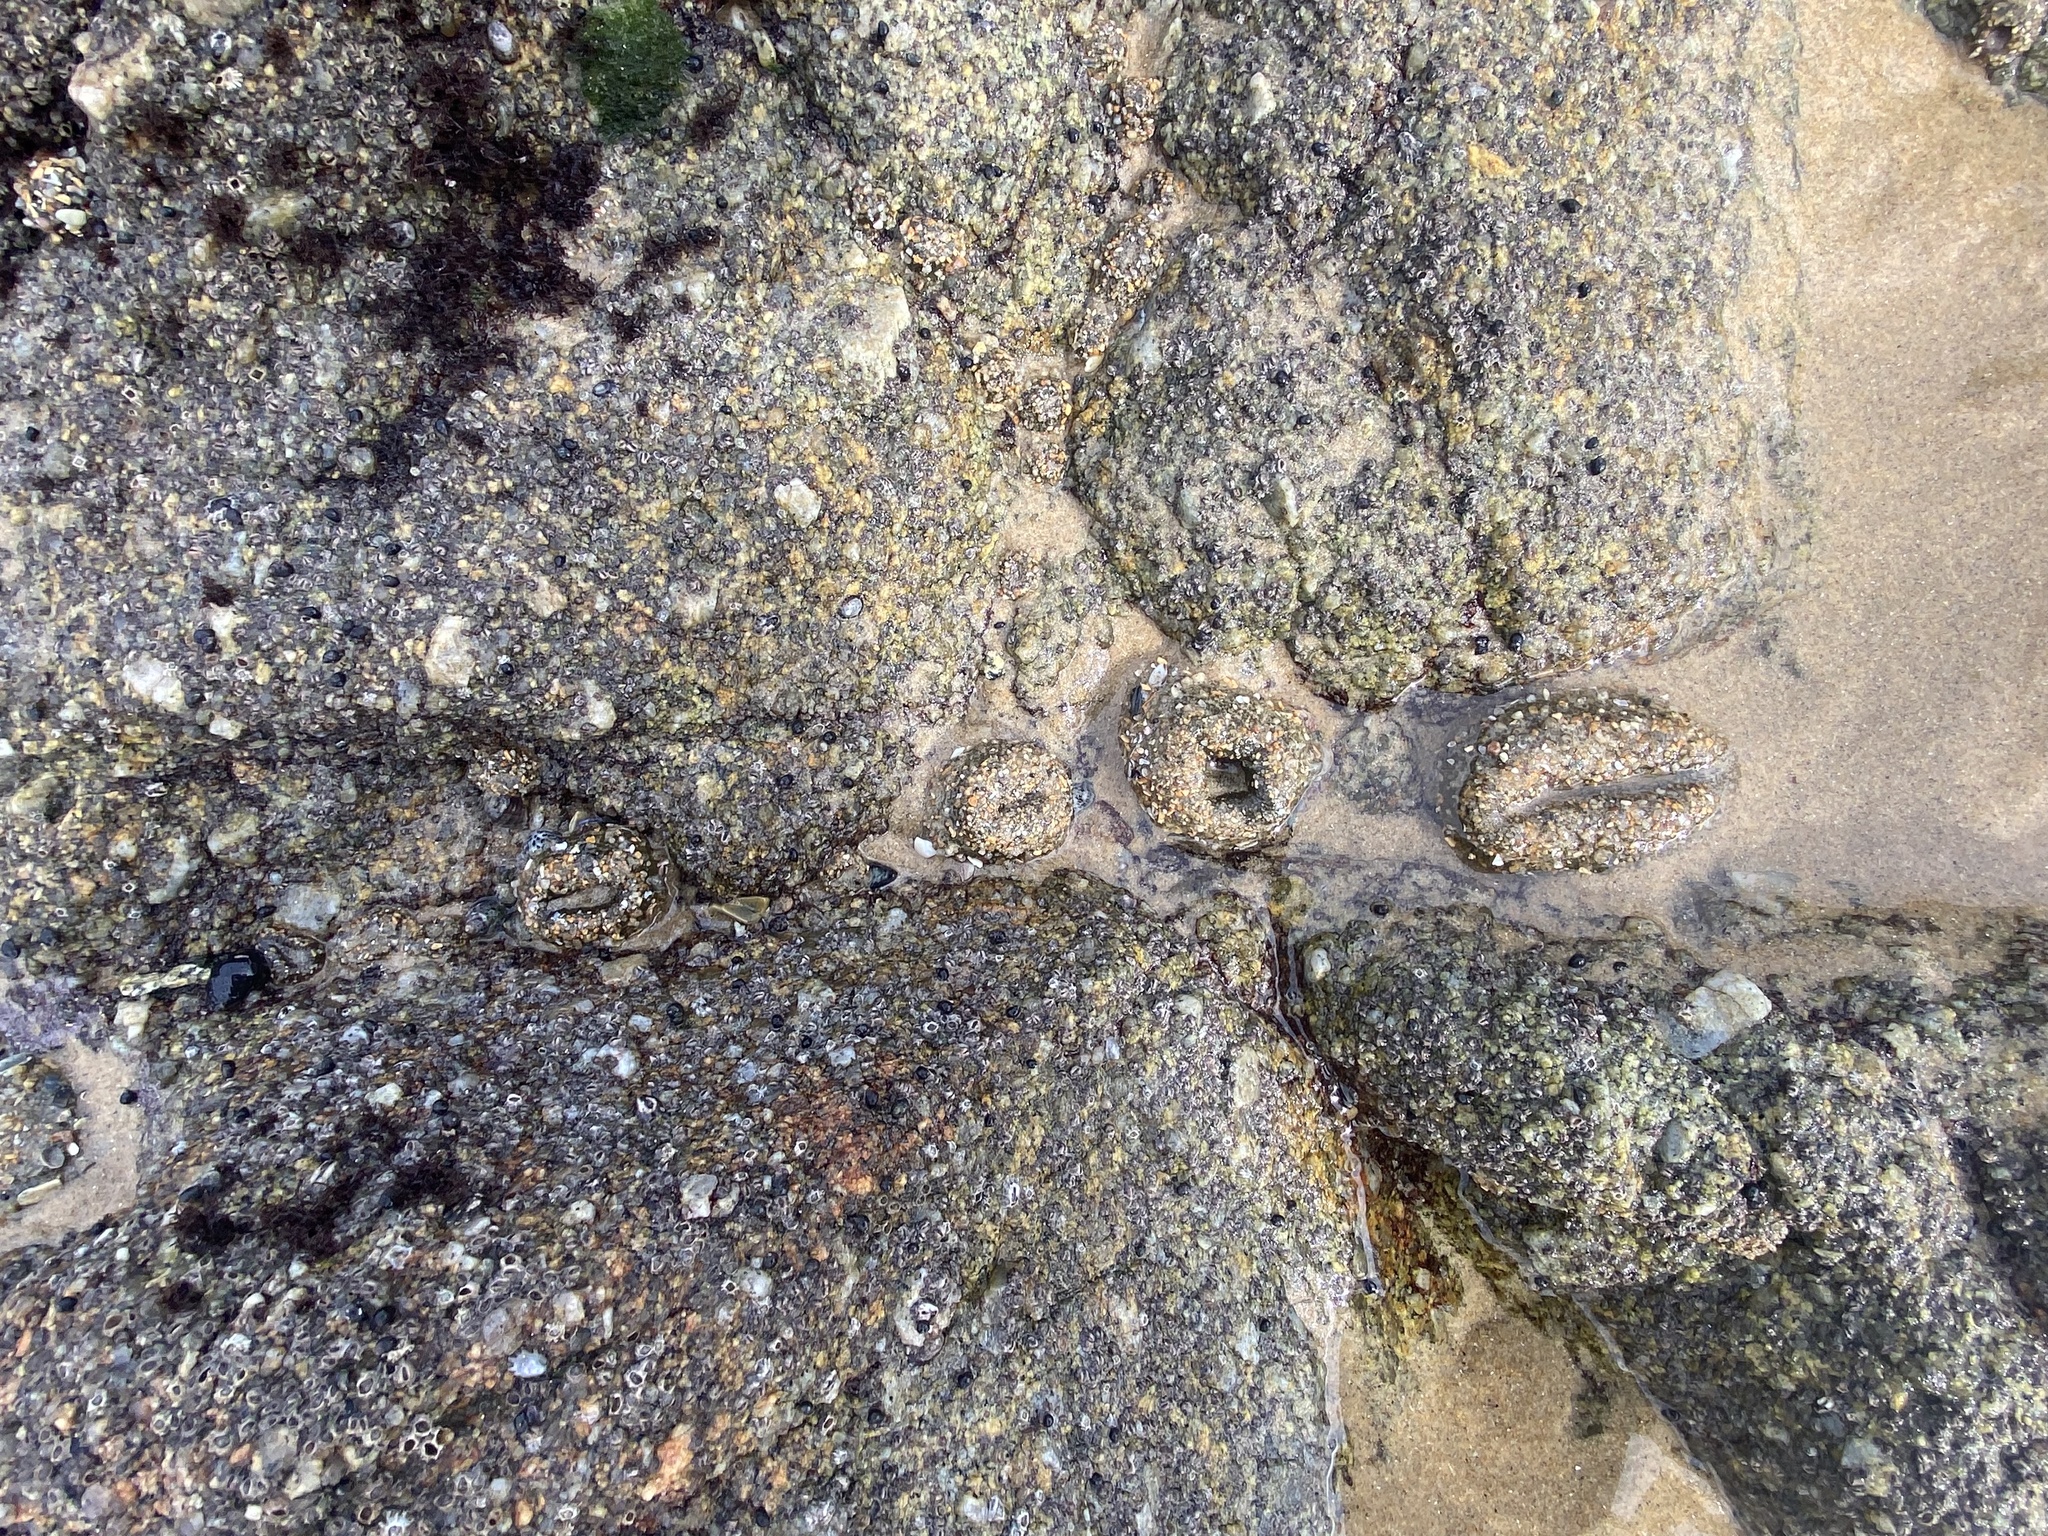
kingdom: Animalia
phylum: Cnidaria
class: Anthozoa
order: Actiniaria
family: Actiniidae
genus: Anthopleura
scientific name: Anthopleura elegantissima
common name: Clonal anemone
